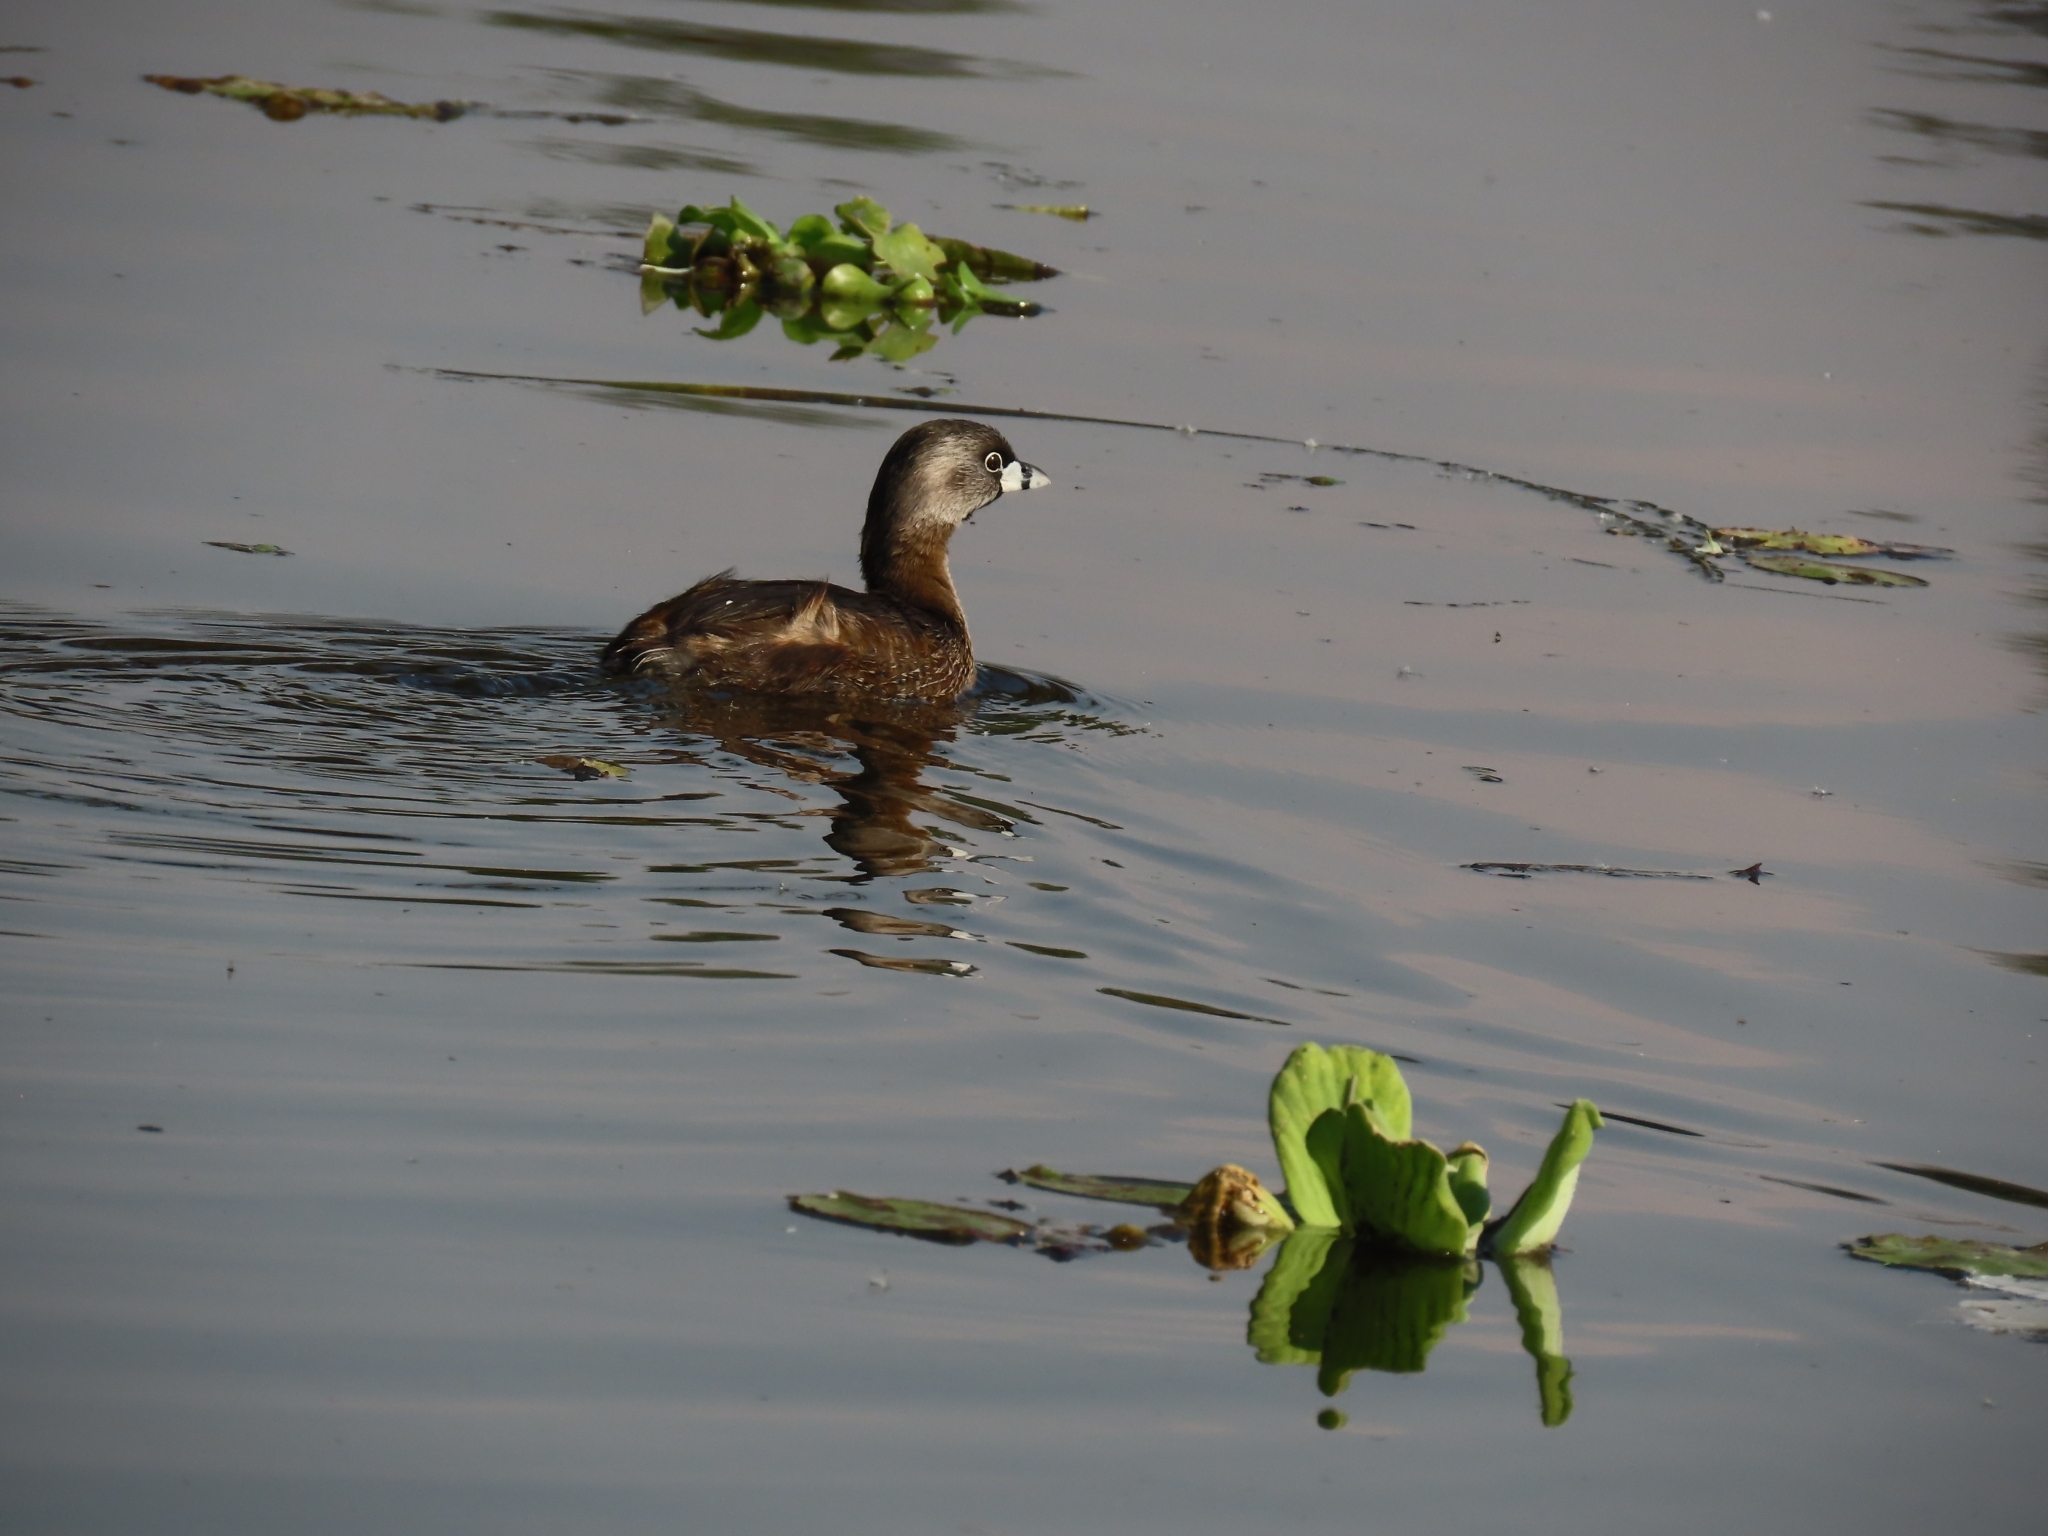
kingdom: Animalia
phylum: Chordata
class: Aves
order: Podicipediformes
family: Podicipedidae
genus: Podilymbus
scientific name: Podilymbus podiceps
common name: Pied-billed grebe
